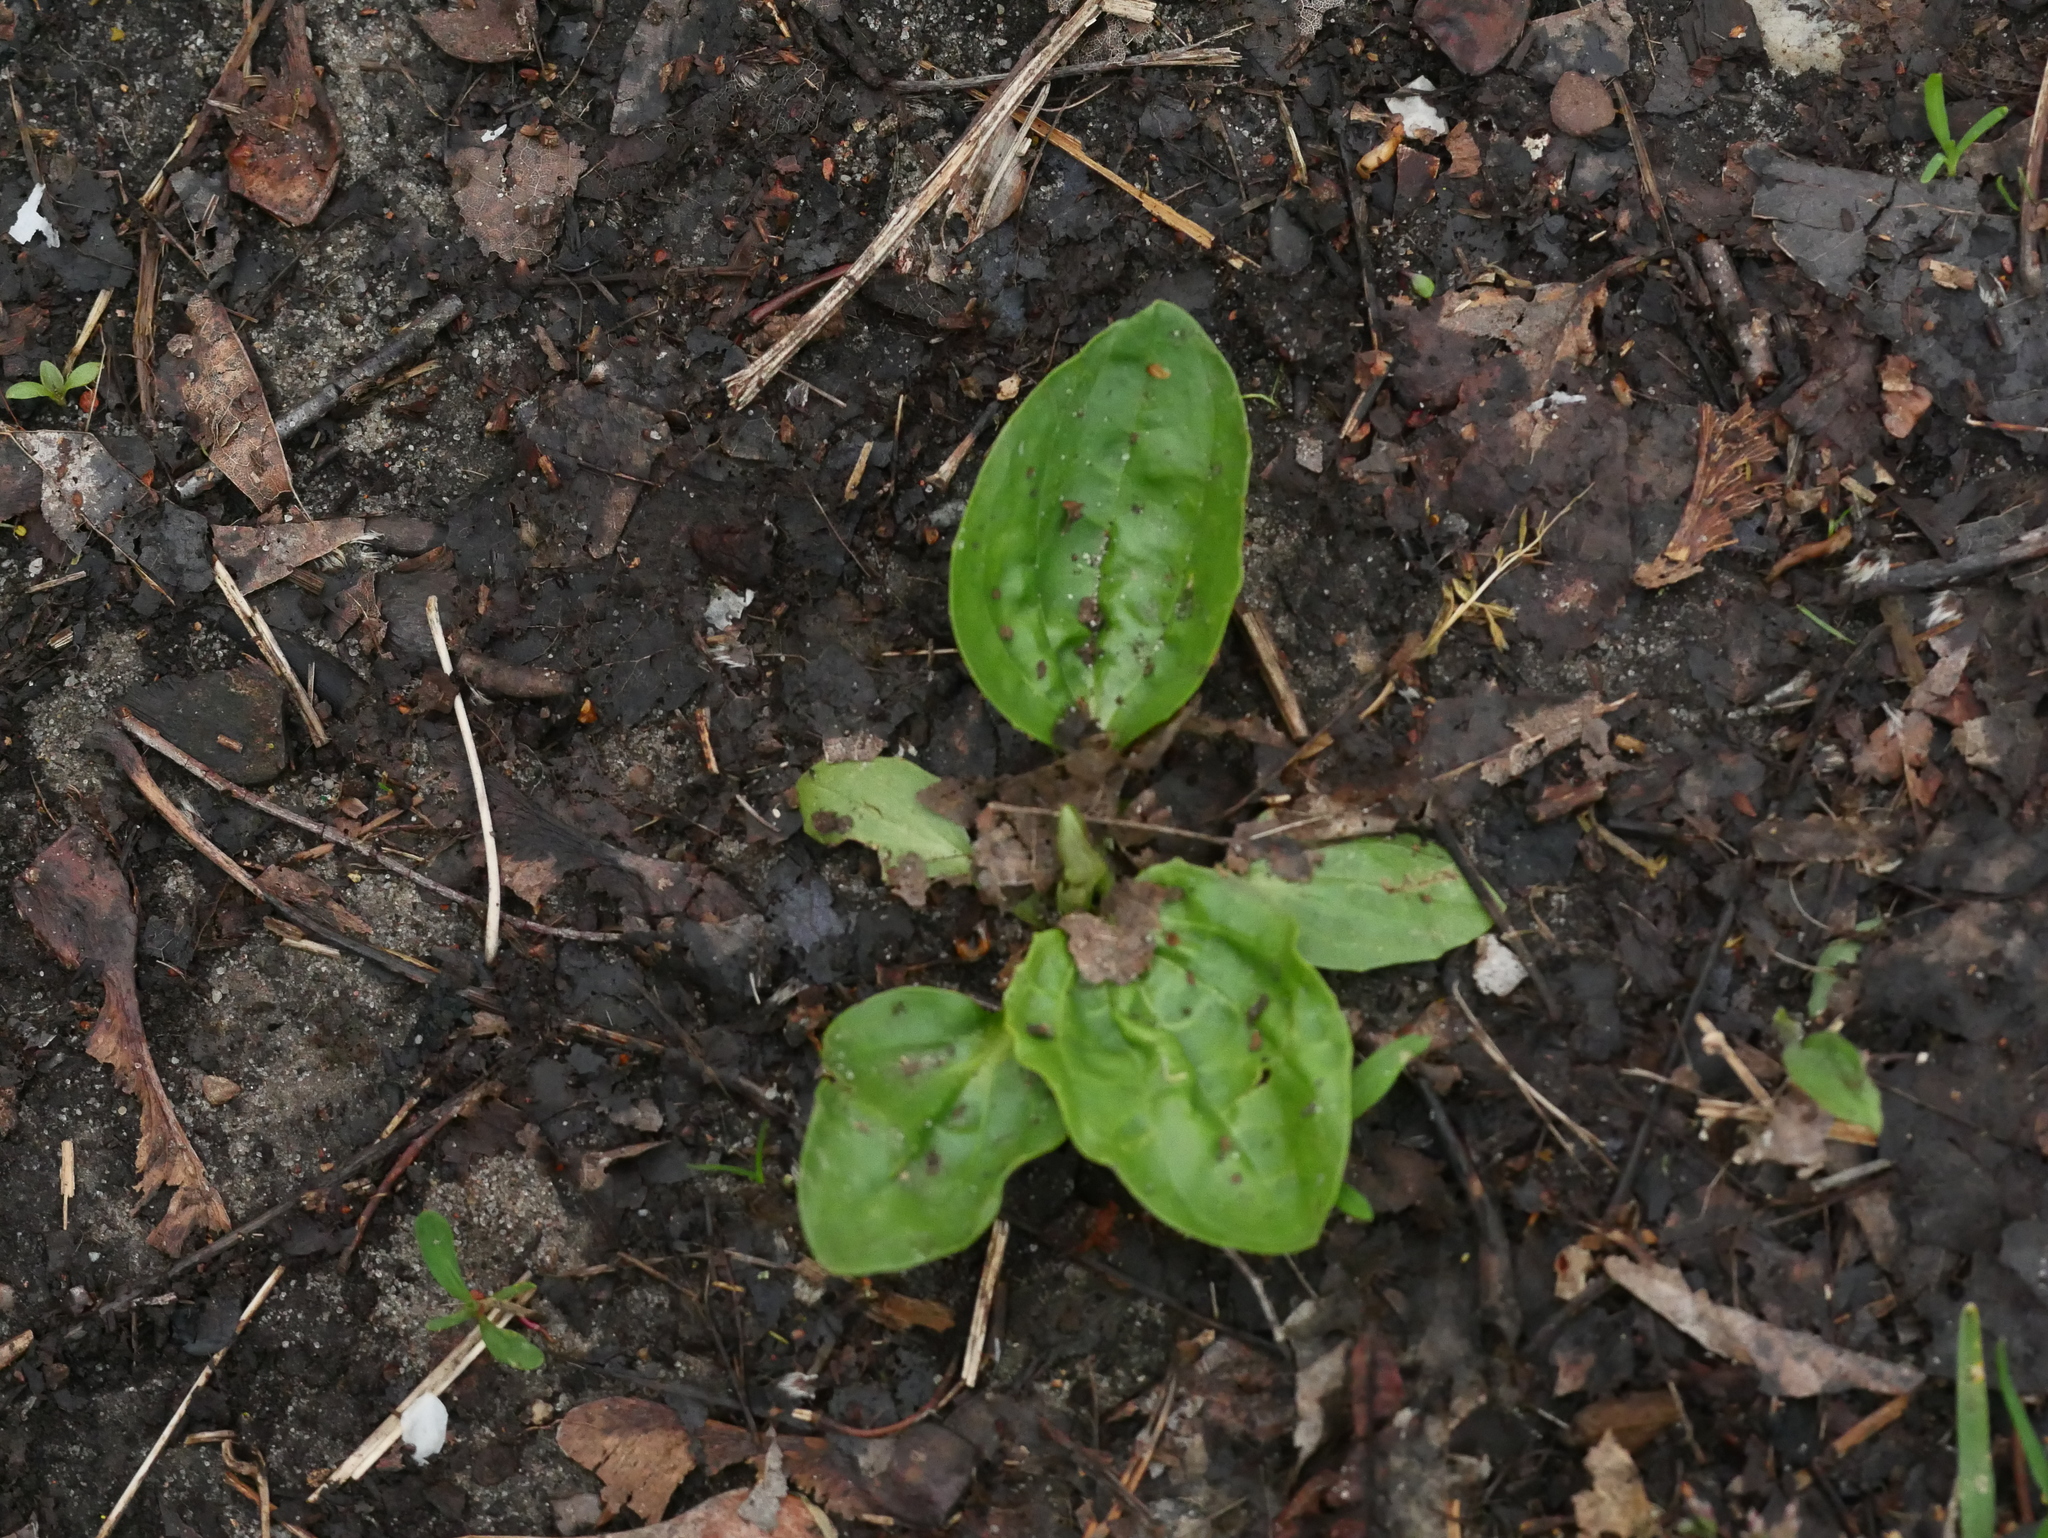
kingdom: Plantae
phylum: Tracheophyta
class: Magnoliopsida
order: Lamiales
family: Plantaginaceae
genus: Plantago
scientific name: Plantago major
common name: Common plantain
